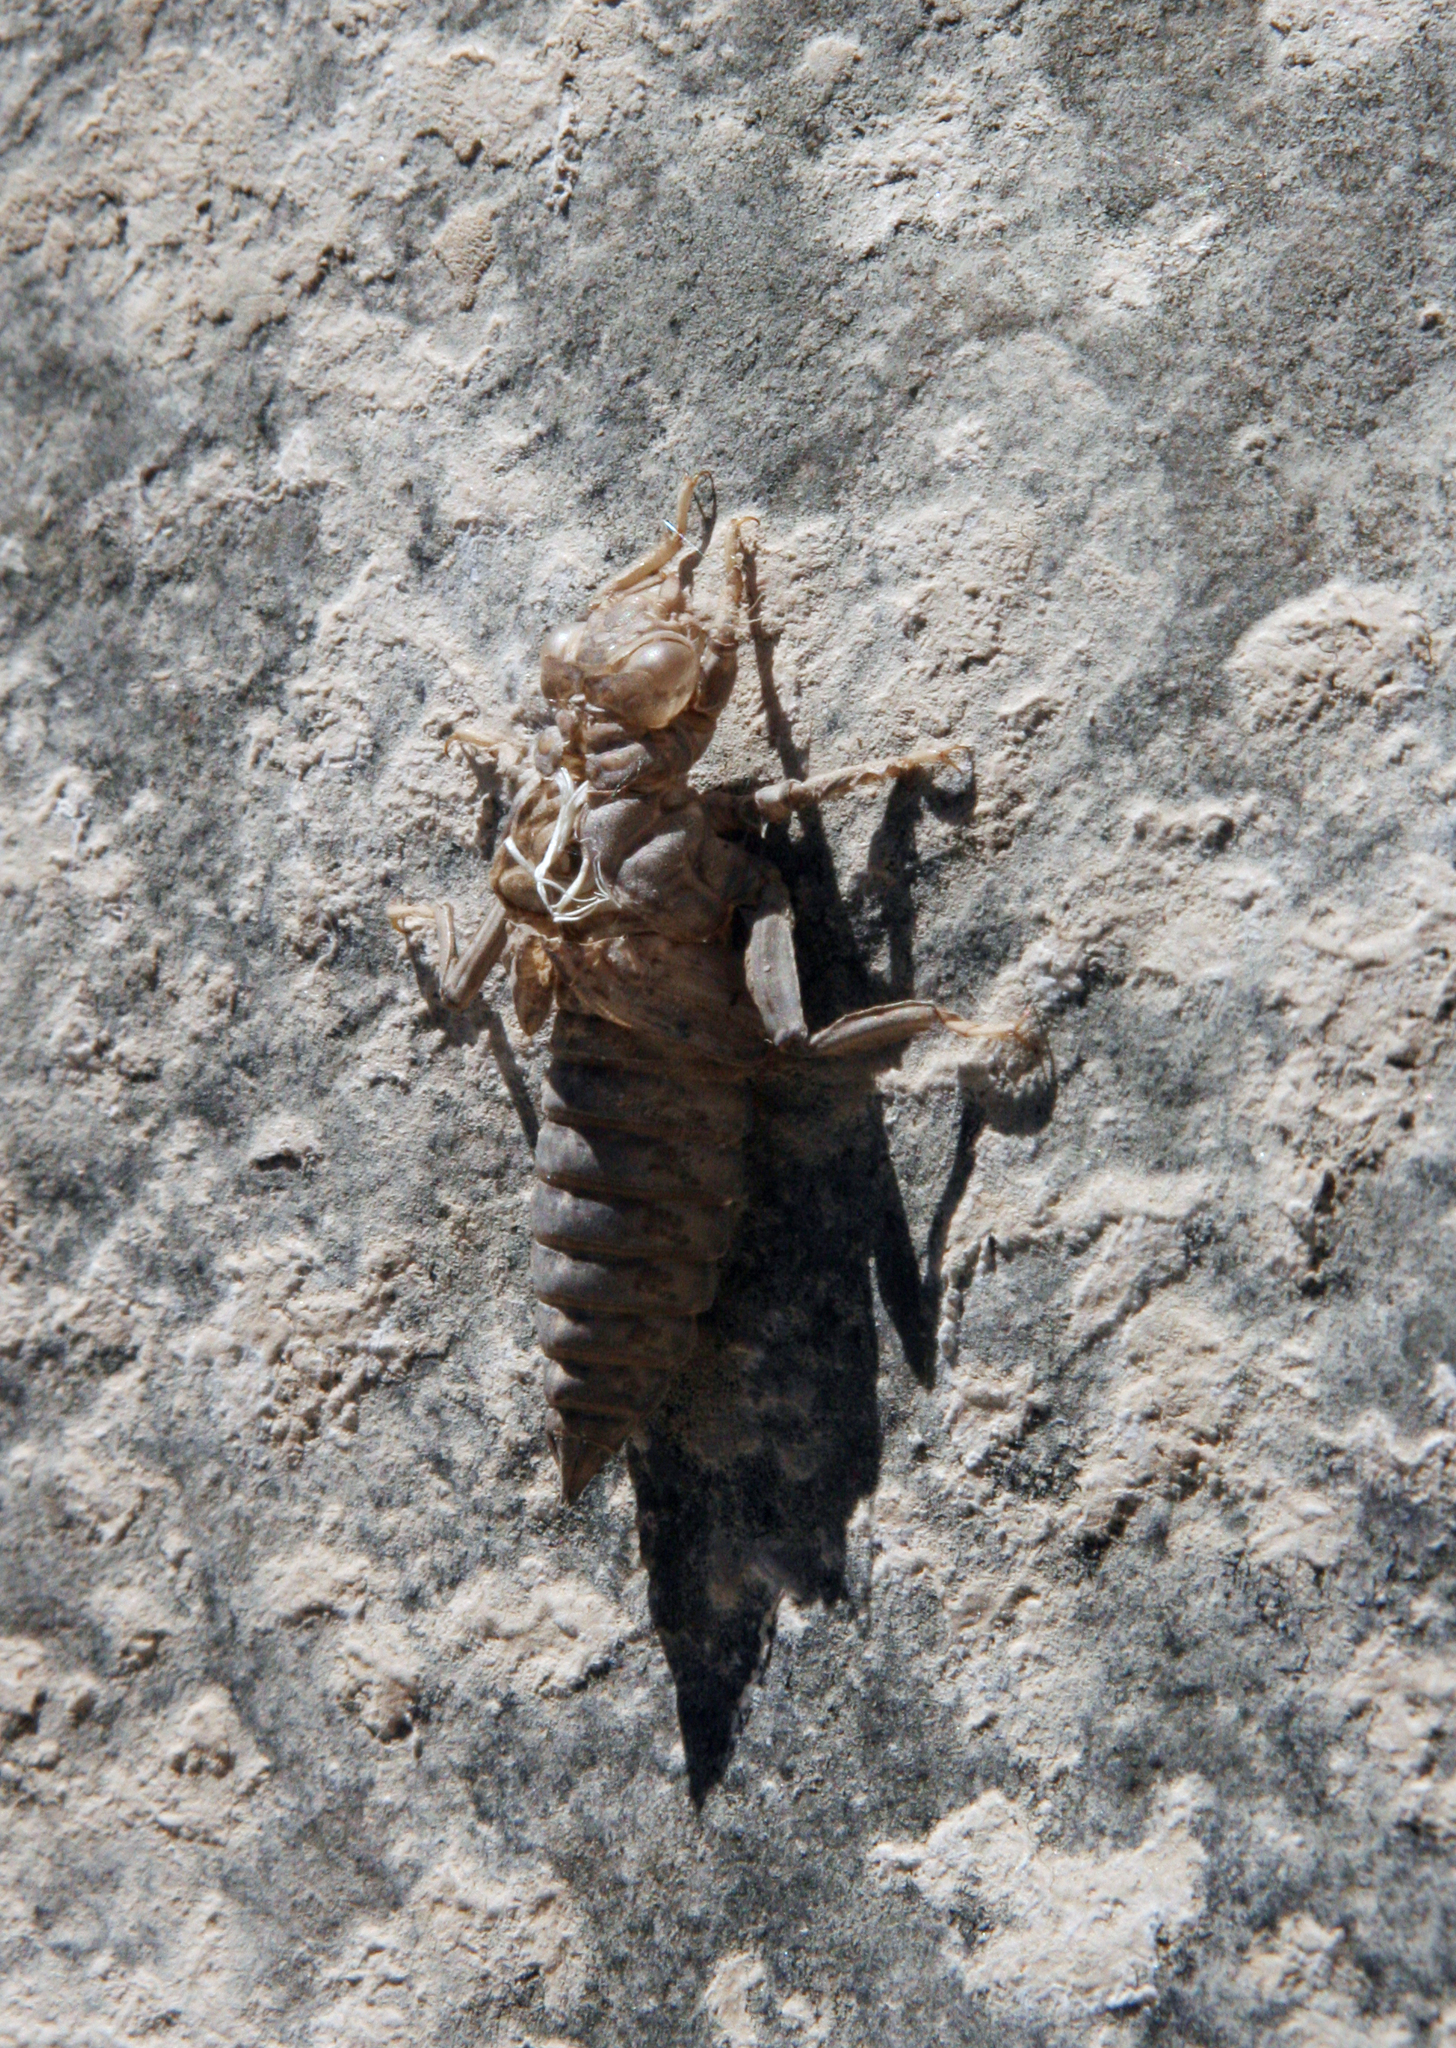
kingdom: Animalia
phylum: Arthropoda
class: Insecta
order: Odonata
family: Gomphidae
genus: Gomphus
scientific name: Gomphus kinzelbachi
